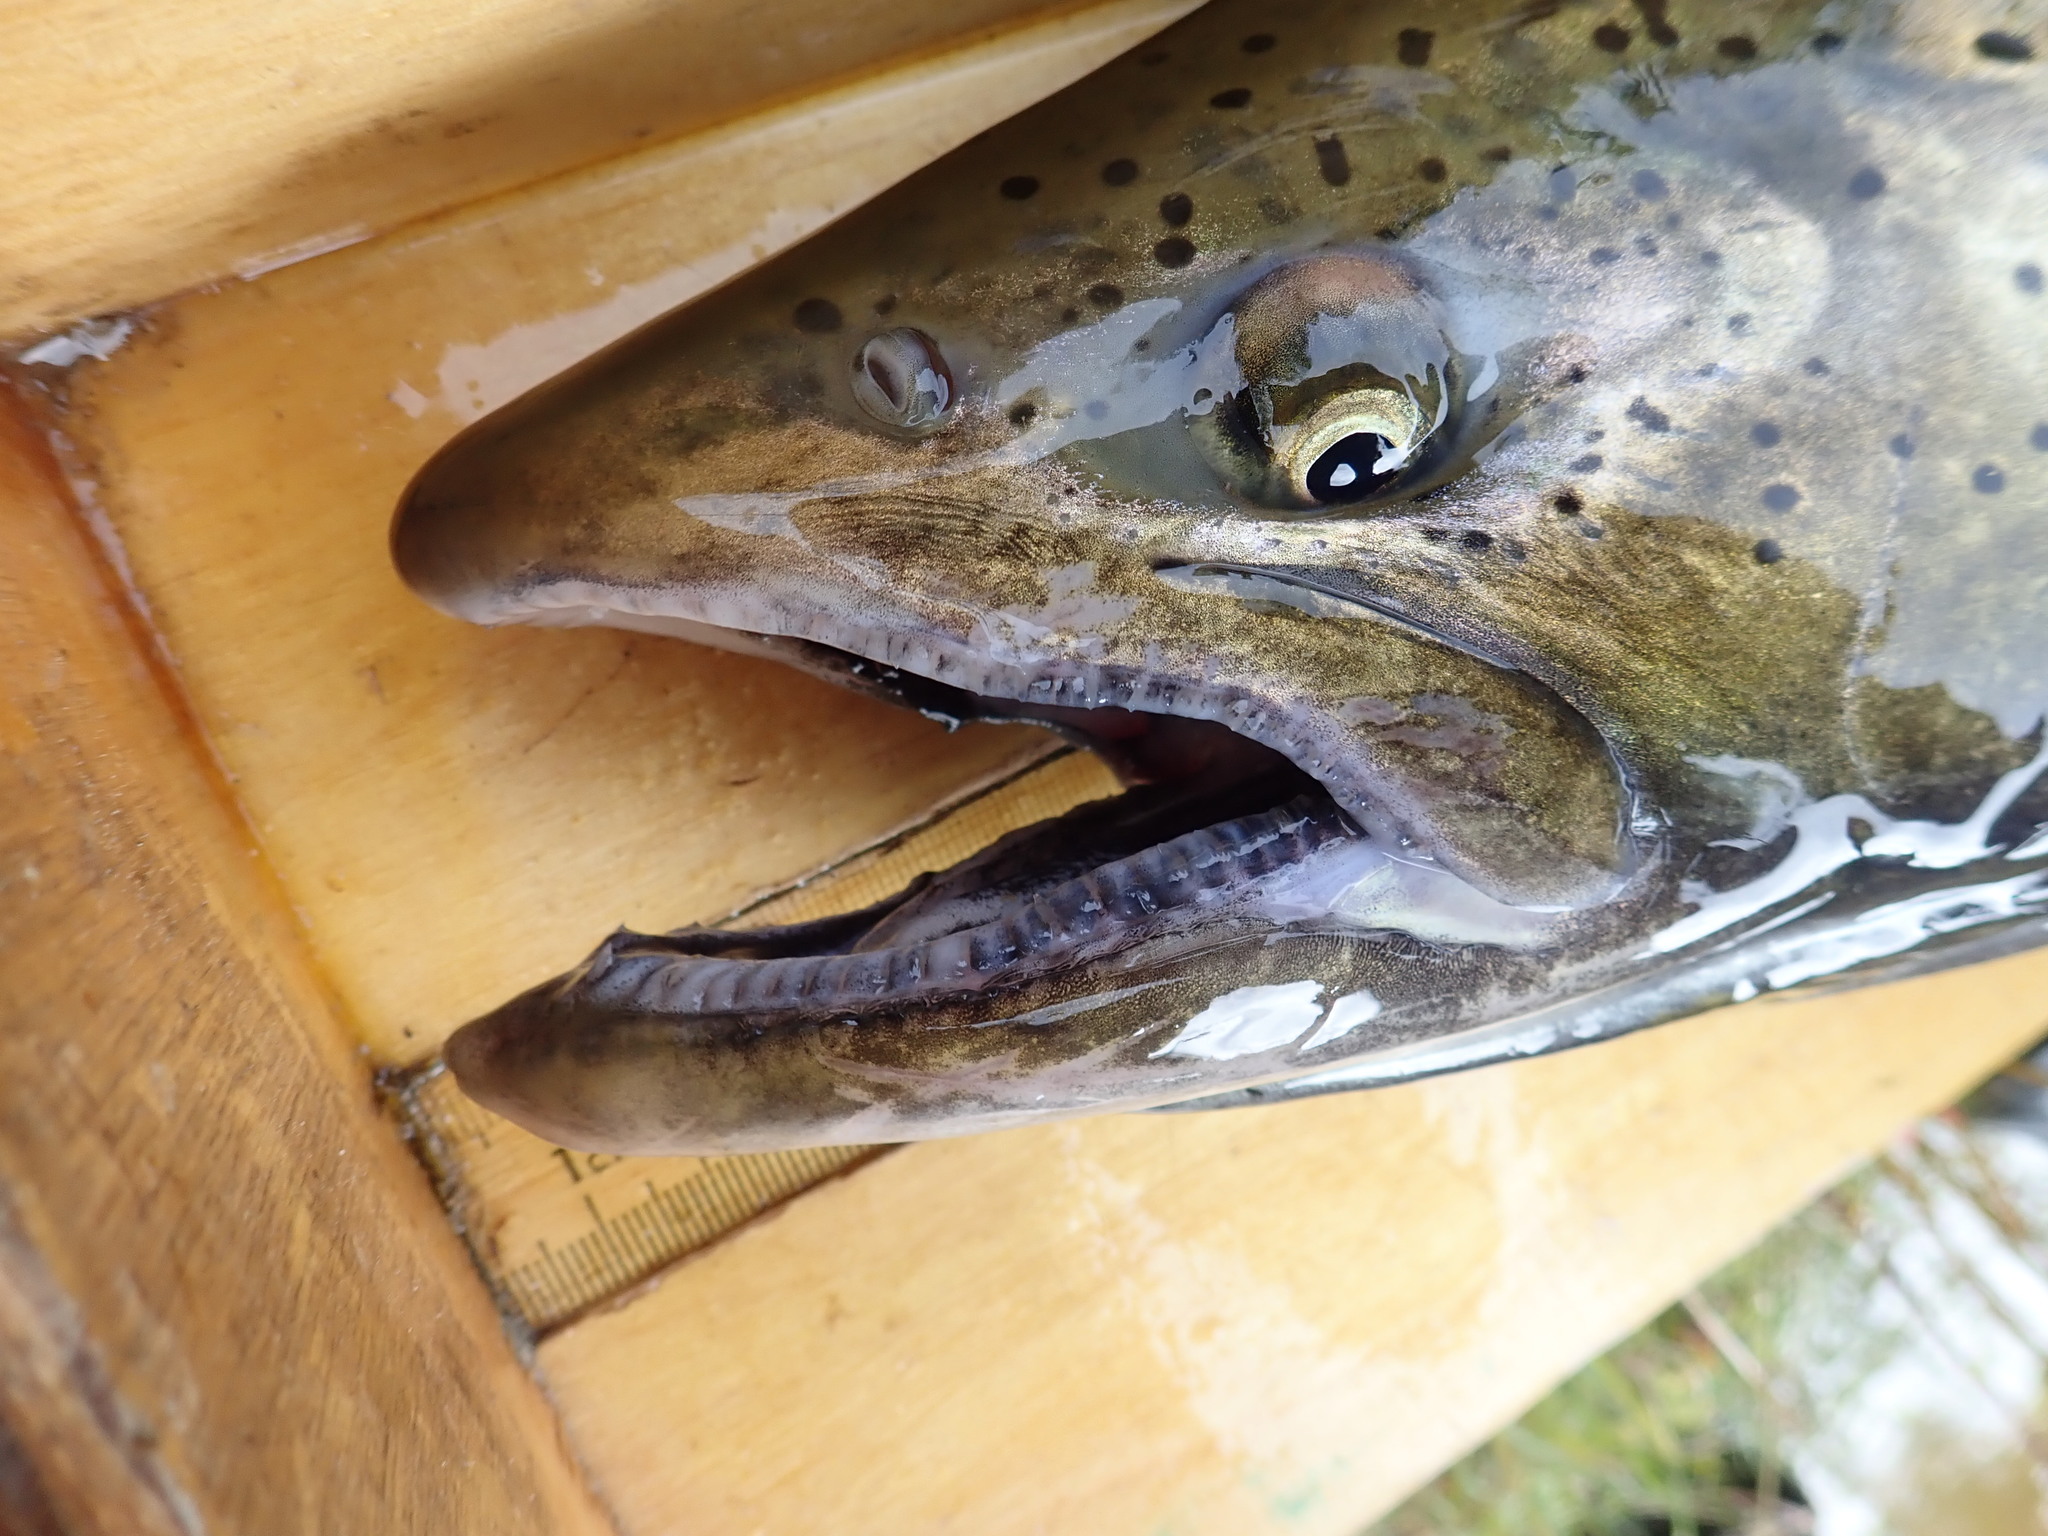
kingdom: Animalia
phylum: Chordata
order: Salmoniformes
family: Salmonidae
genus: Oncorhynchus
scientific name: Oncorhynchus tshawytscha
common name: Chinook salmon
